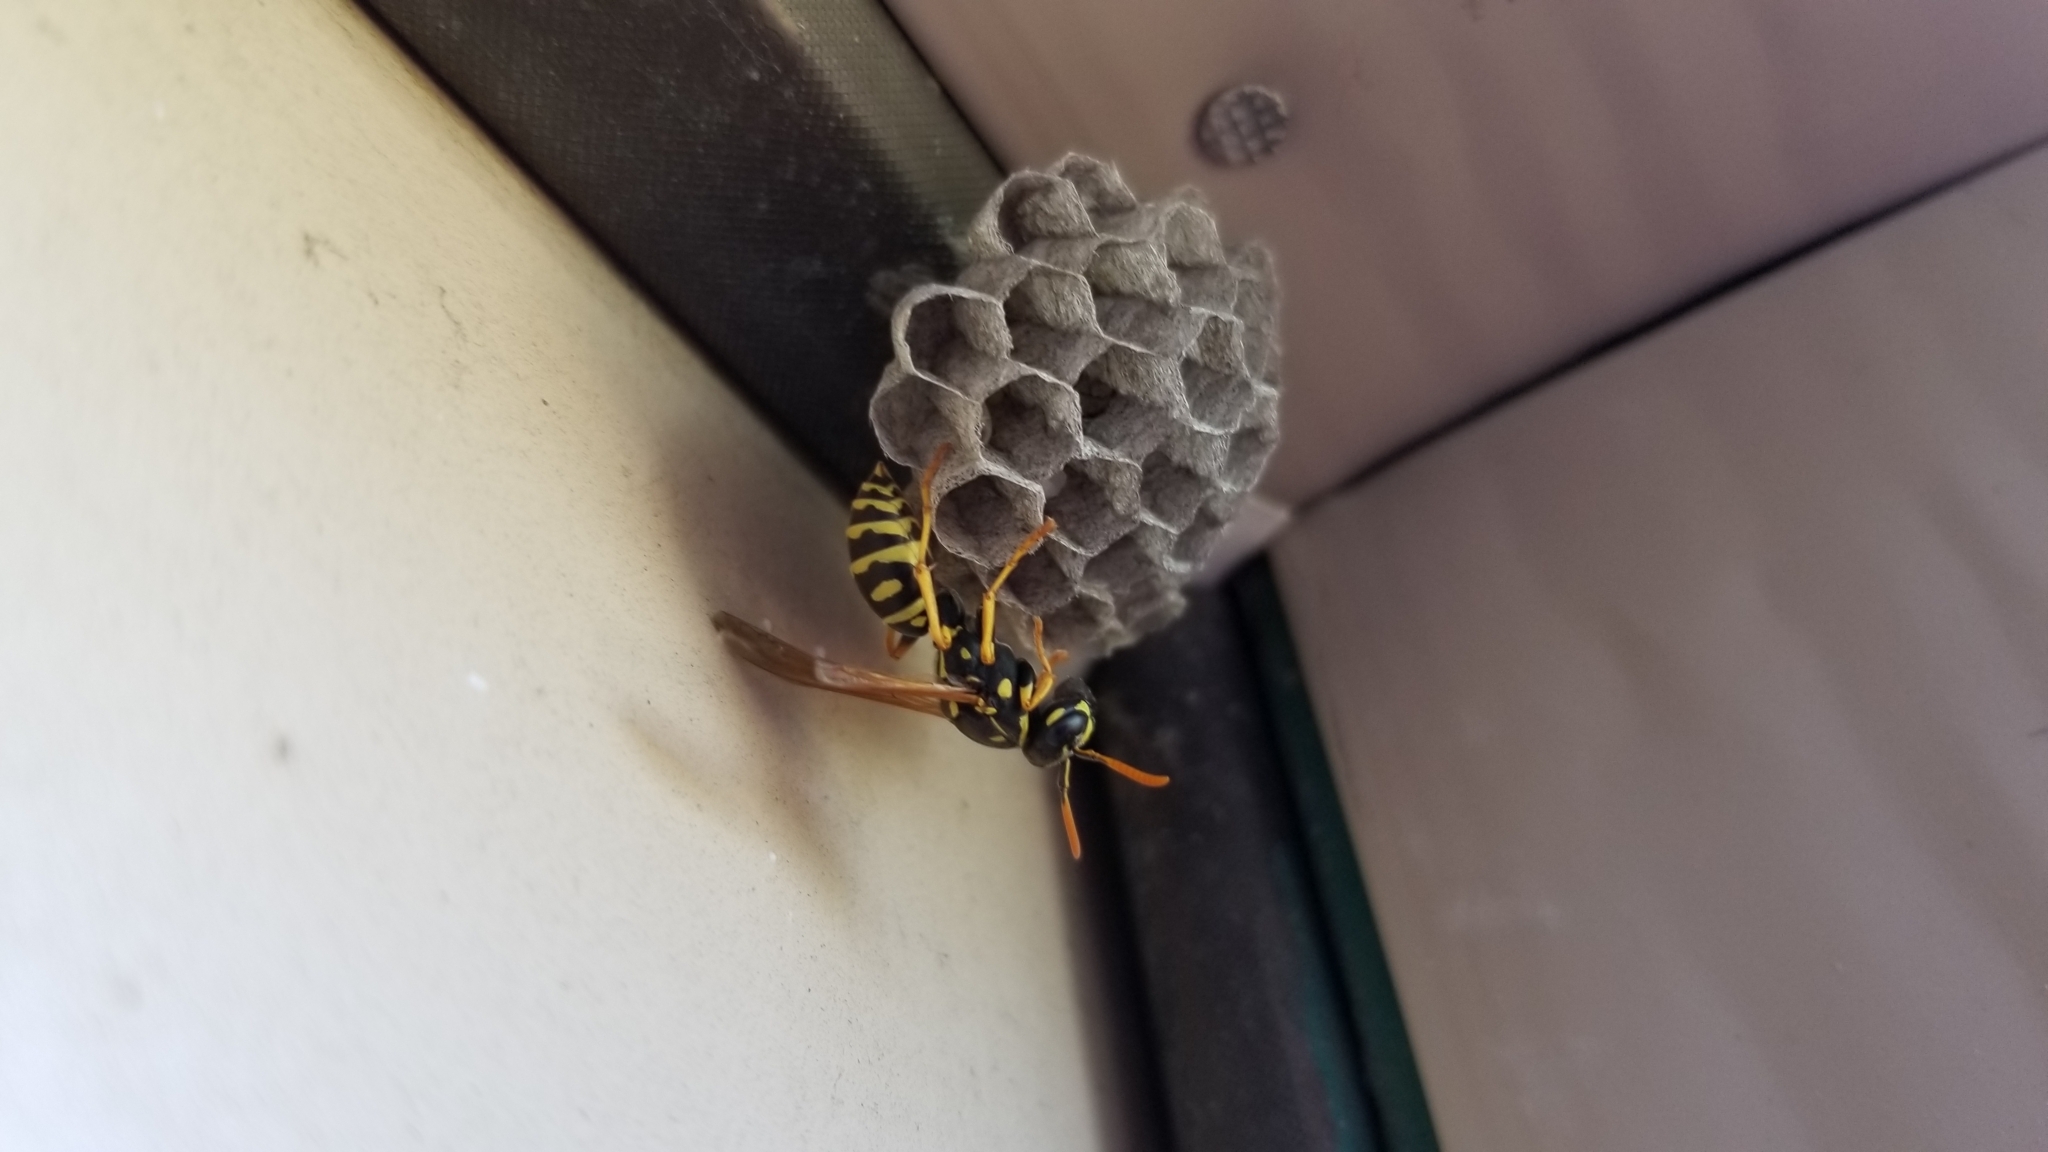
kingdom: Animalia
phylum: Arthropoda
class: Insecta
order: Hymenoptera
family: Eumenidae
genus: Polistes
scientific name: Polistes dominula
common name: Paper wasp
